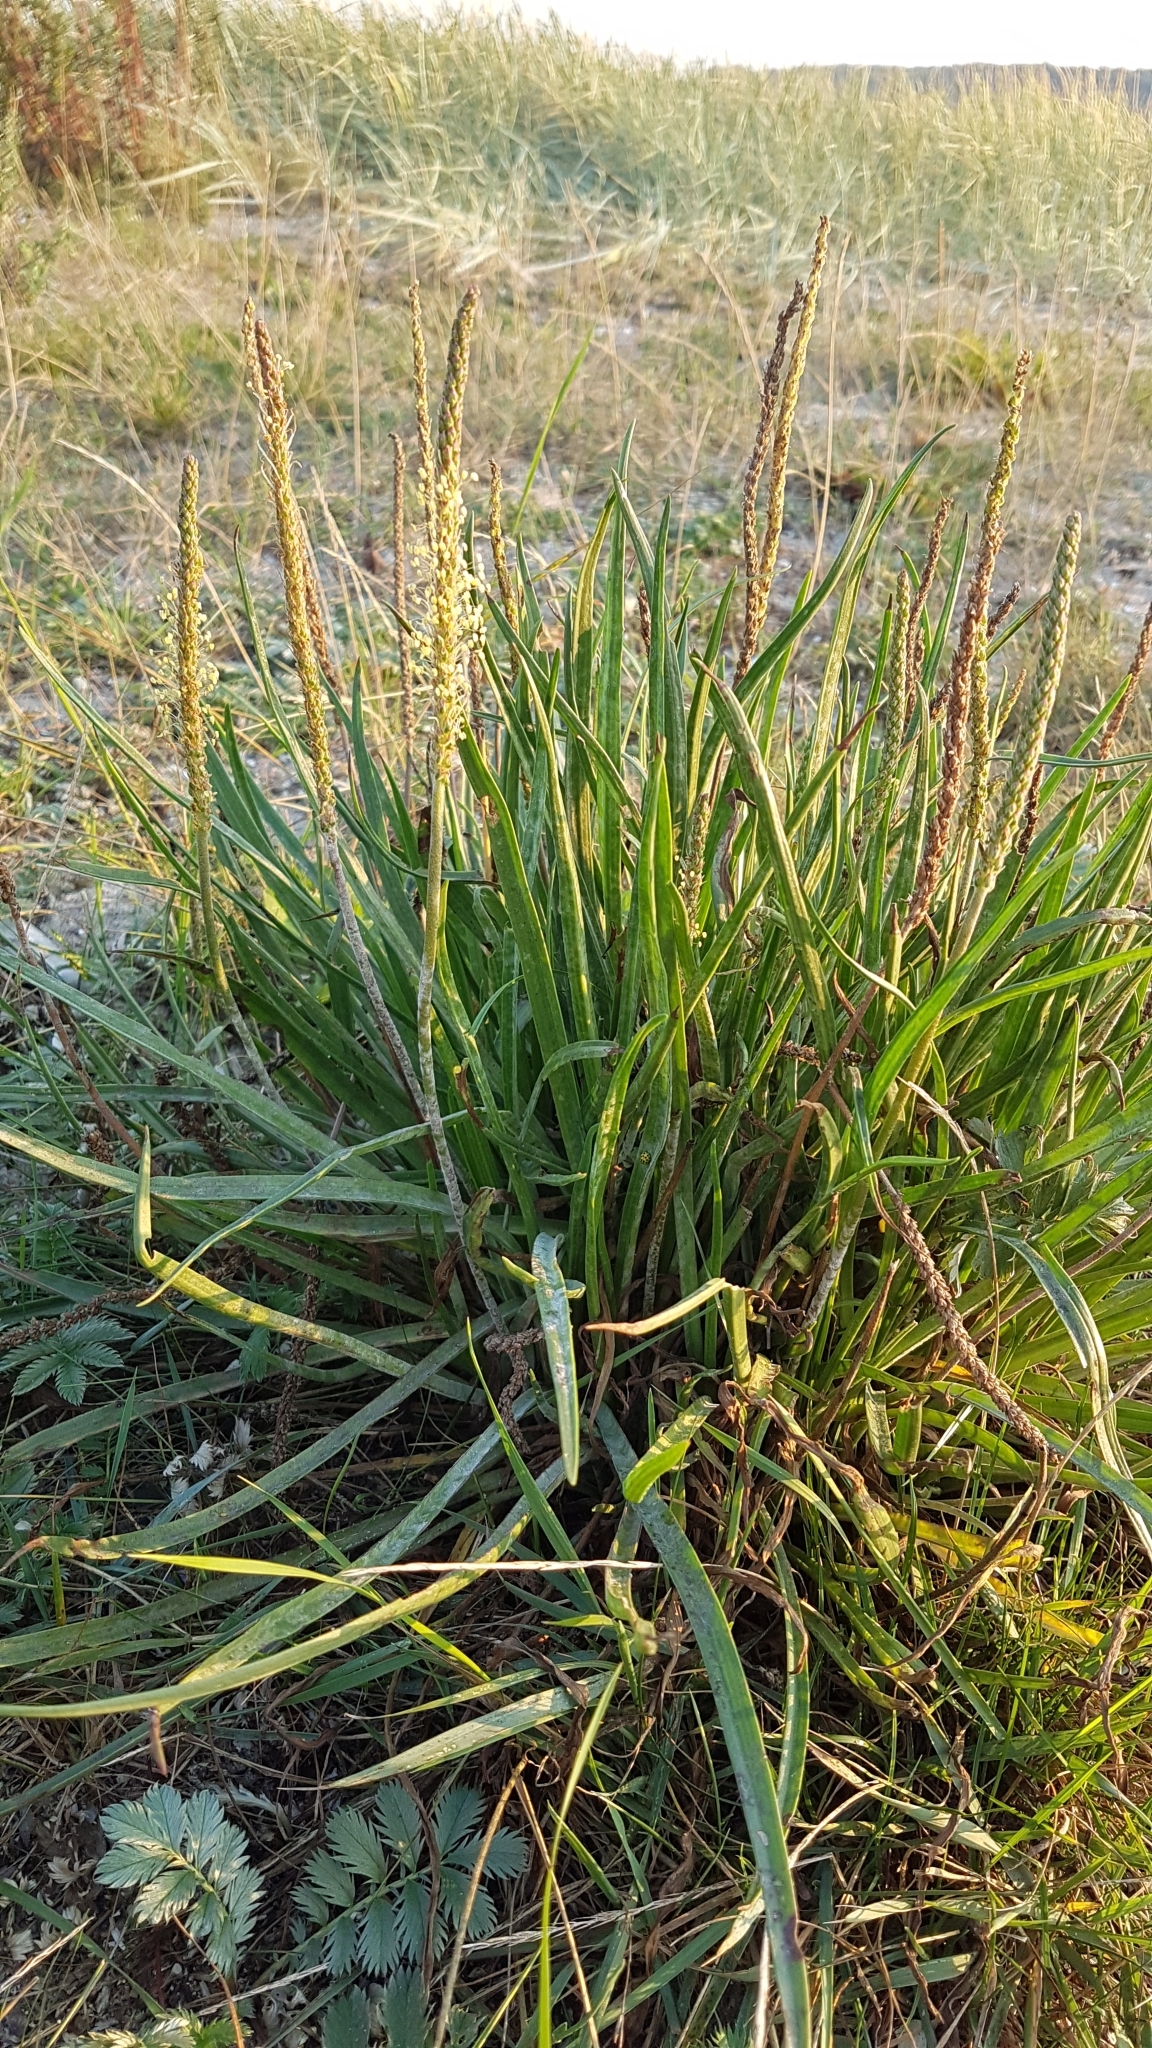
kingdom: Plantae
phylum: Tracheophyta
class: Magnoliopsida
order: Lamiales
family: Plantaginaceae
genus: Plantago
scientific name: Plantago maritima
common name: Sea plantain
